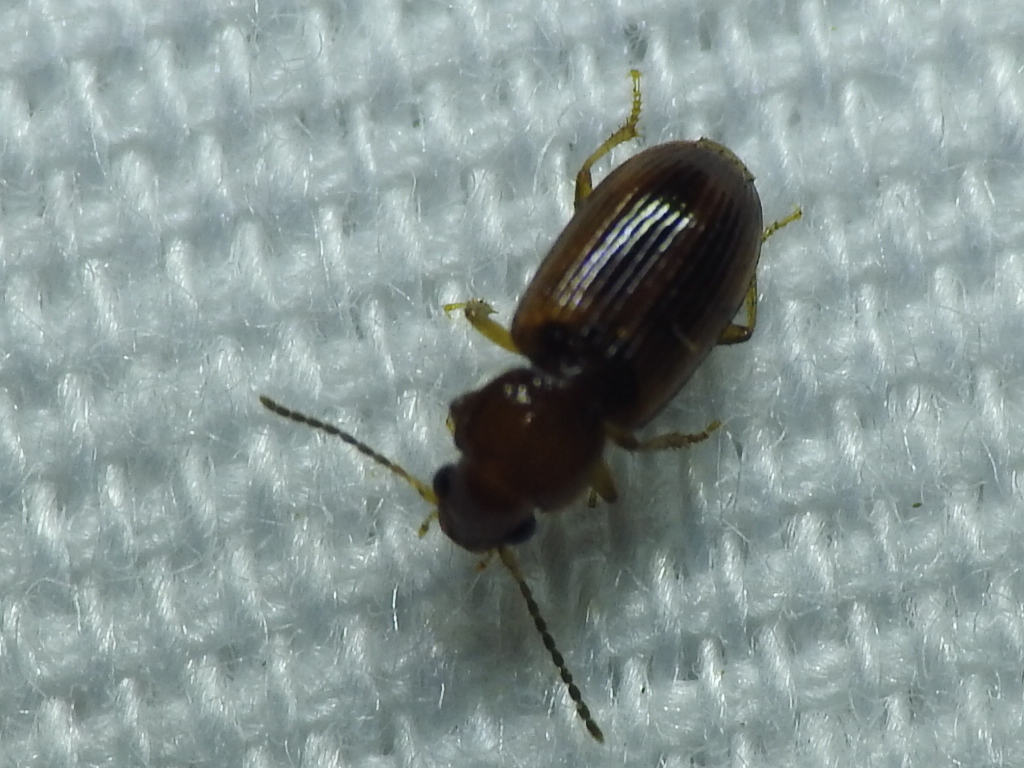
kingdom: Animalia
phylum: Arthropoda
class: Insecta
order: Coleoptera
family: Carabidae
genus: Acupalpus
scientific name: Acupalpus testaceus
